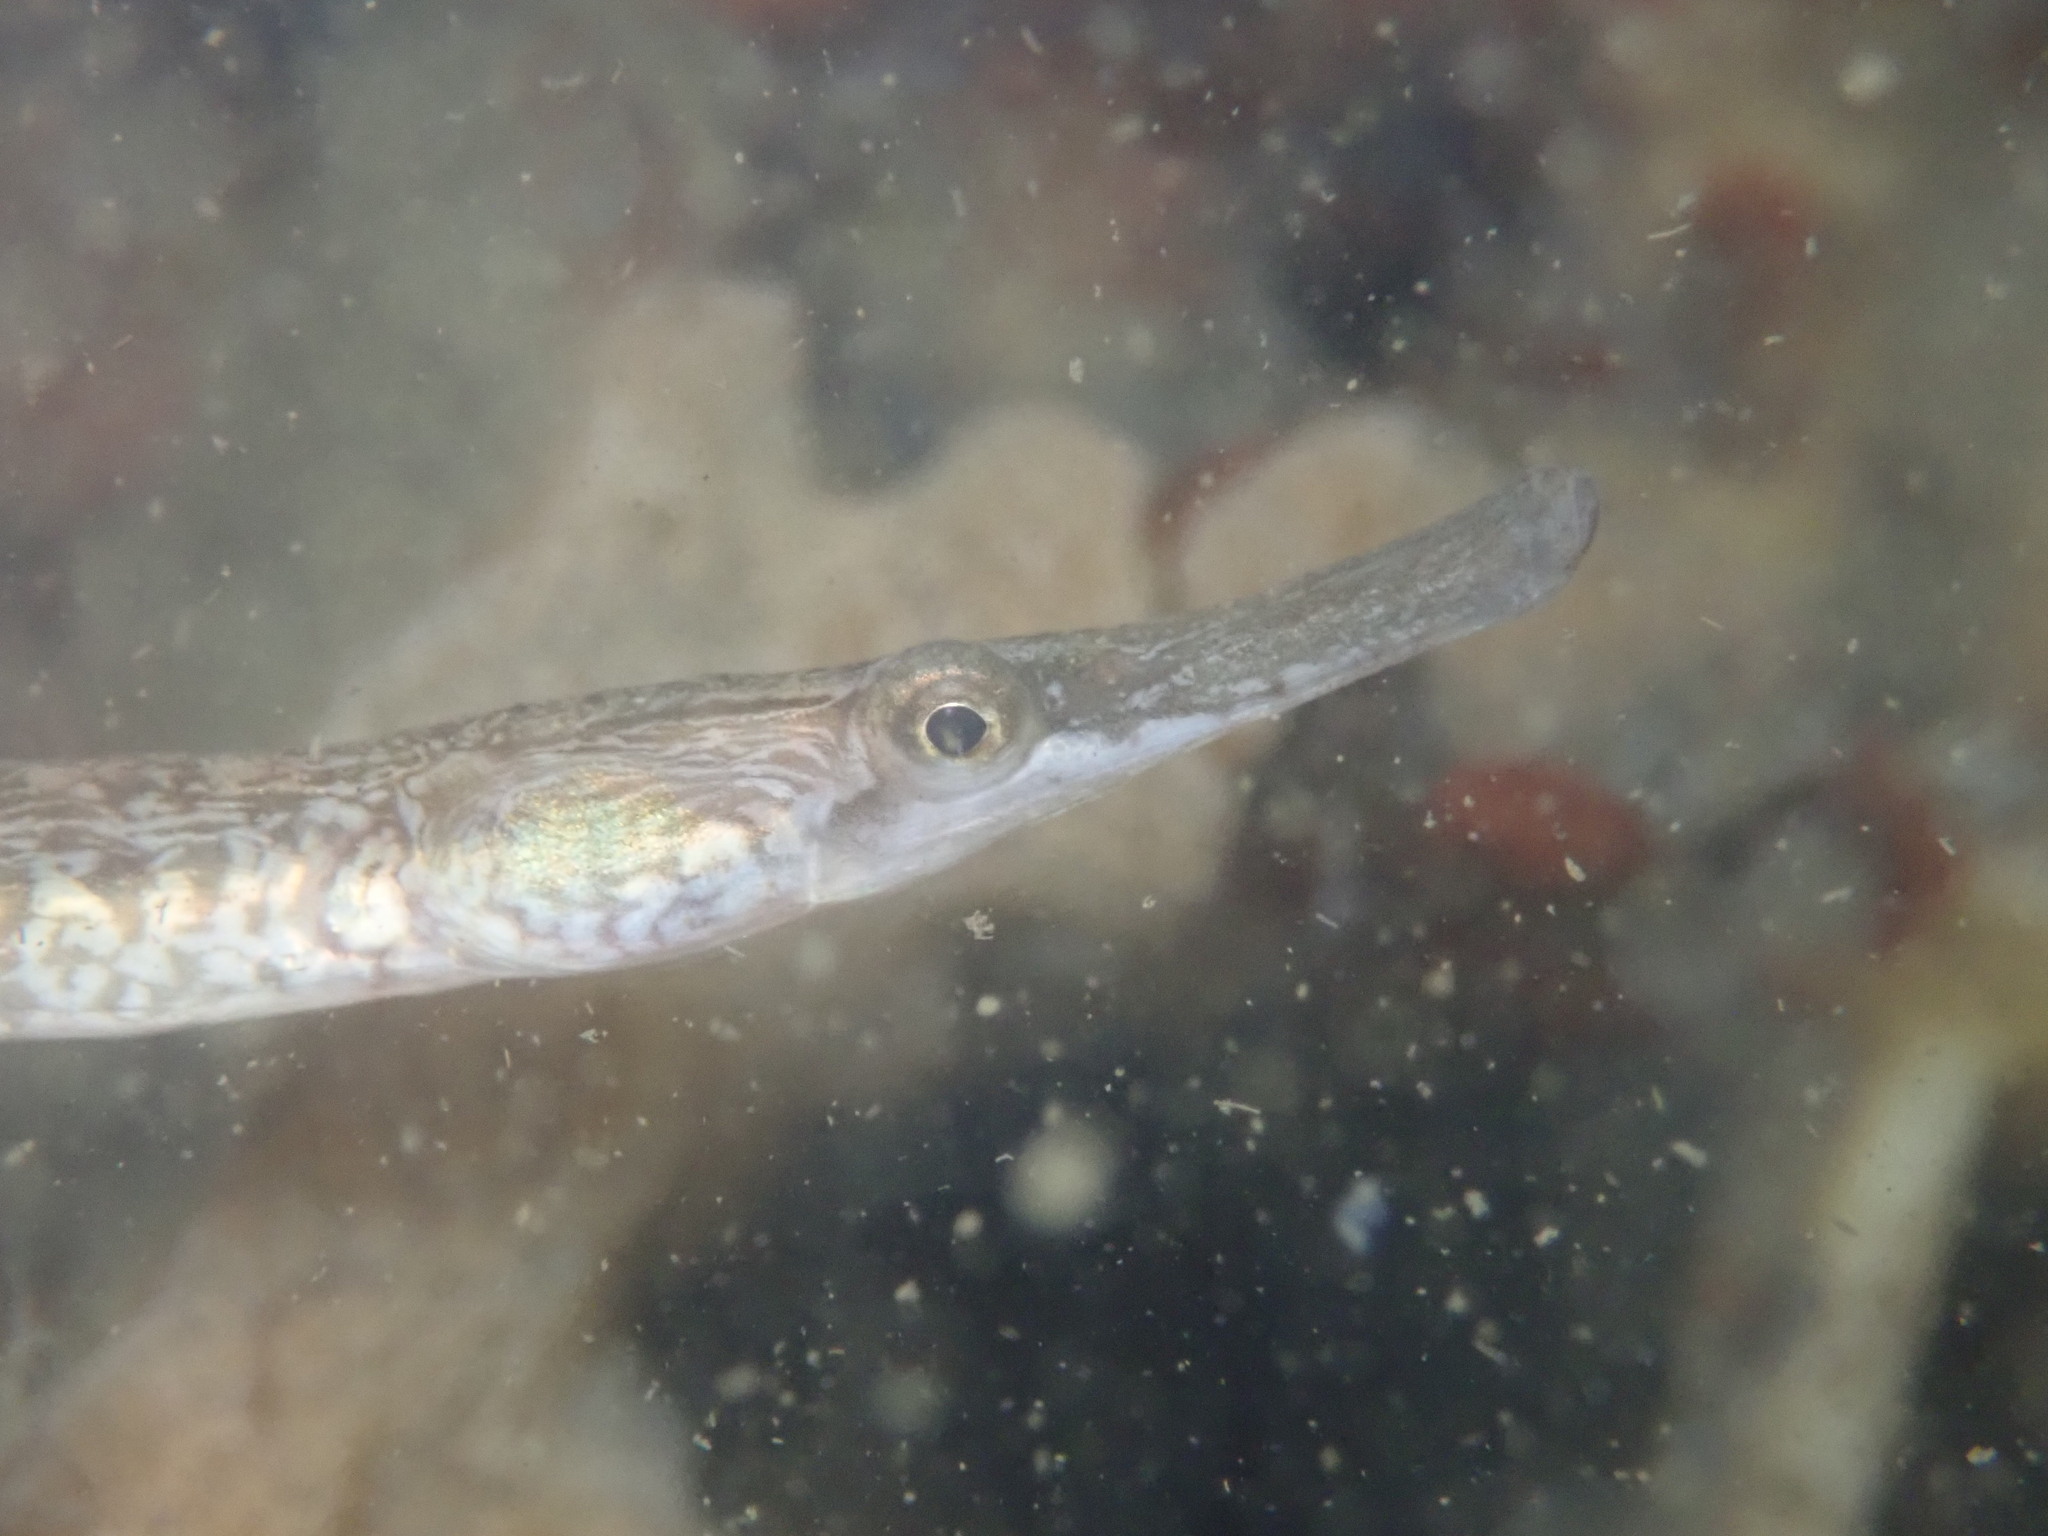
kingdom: Animalia
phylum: Chordata
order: Syngnathiformes
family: Syngnathidae
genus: Syngnathus
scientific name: Syngnathus californiensis
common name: Great pipefish
